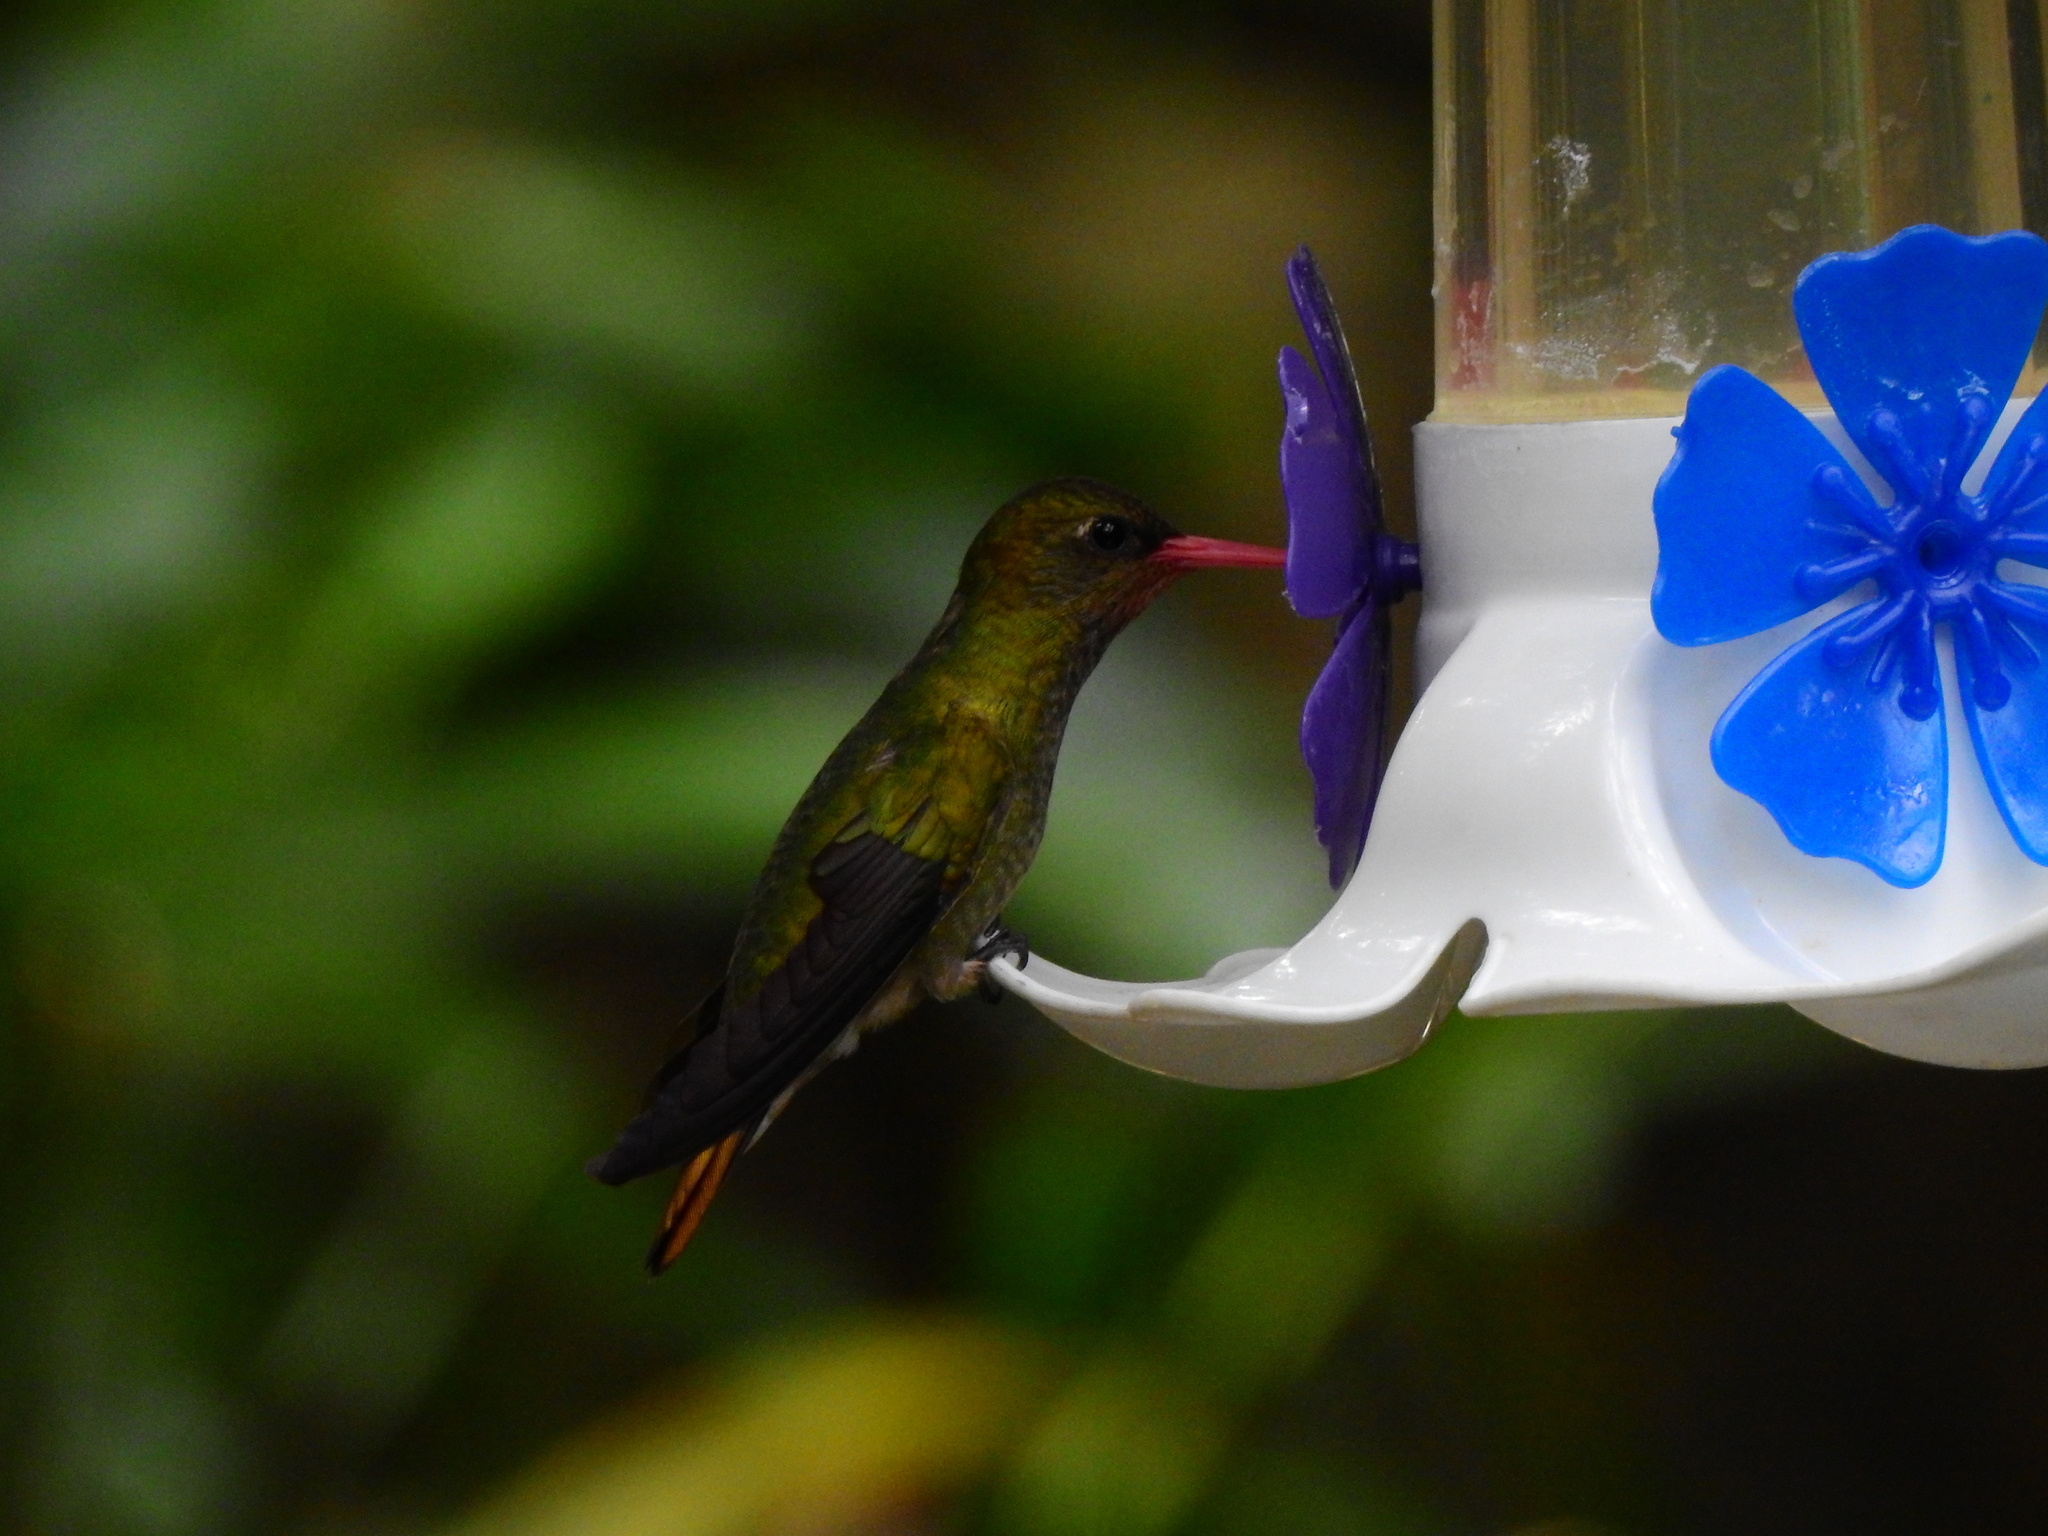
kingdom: Animalia
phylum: Chordata
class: Aves
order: Apodiformes
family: Trochilidae
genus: Hylocharis
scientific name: Hylocharis chrysura
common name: Gilded sapphire
